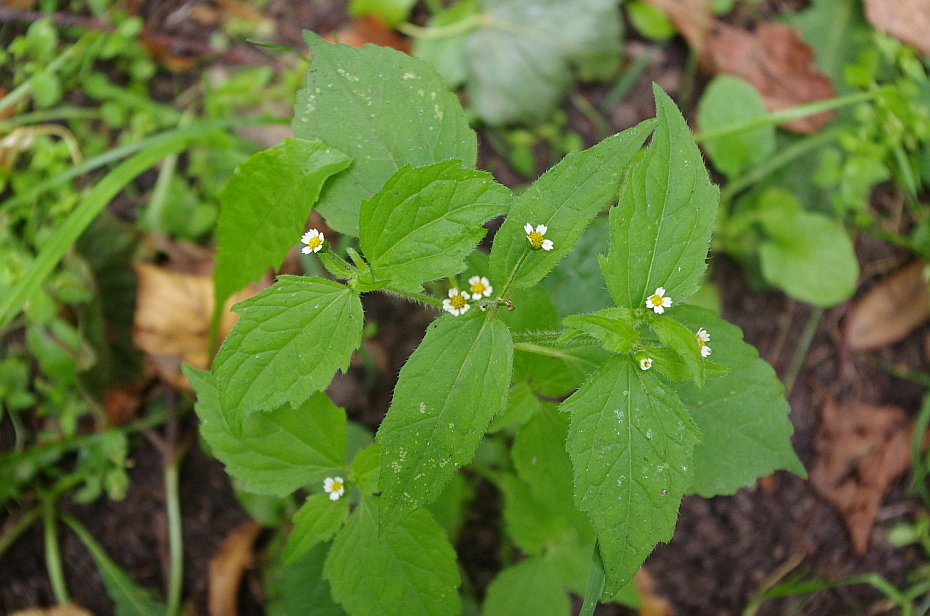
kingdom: Plantae
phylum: Tracheophyta
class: Magnoliopsida
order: Asterales
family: Asteraceae
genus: Galinsoga
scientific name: Galinsoga quadriradiata
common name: Shaggy soldier
